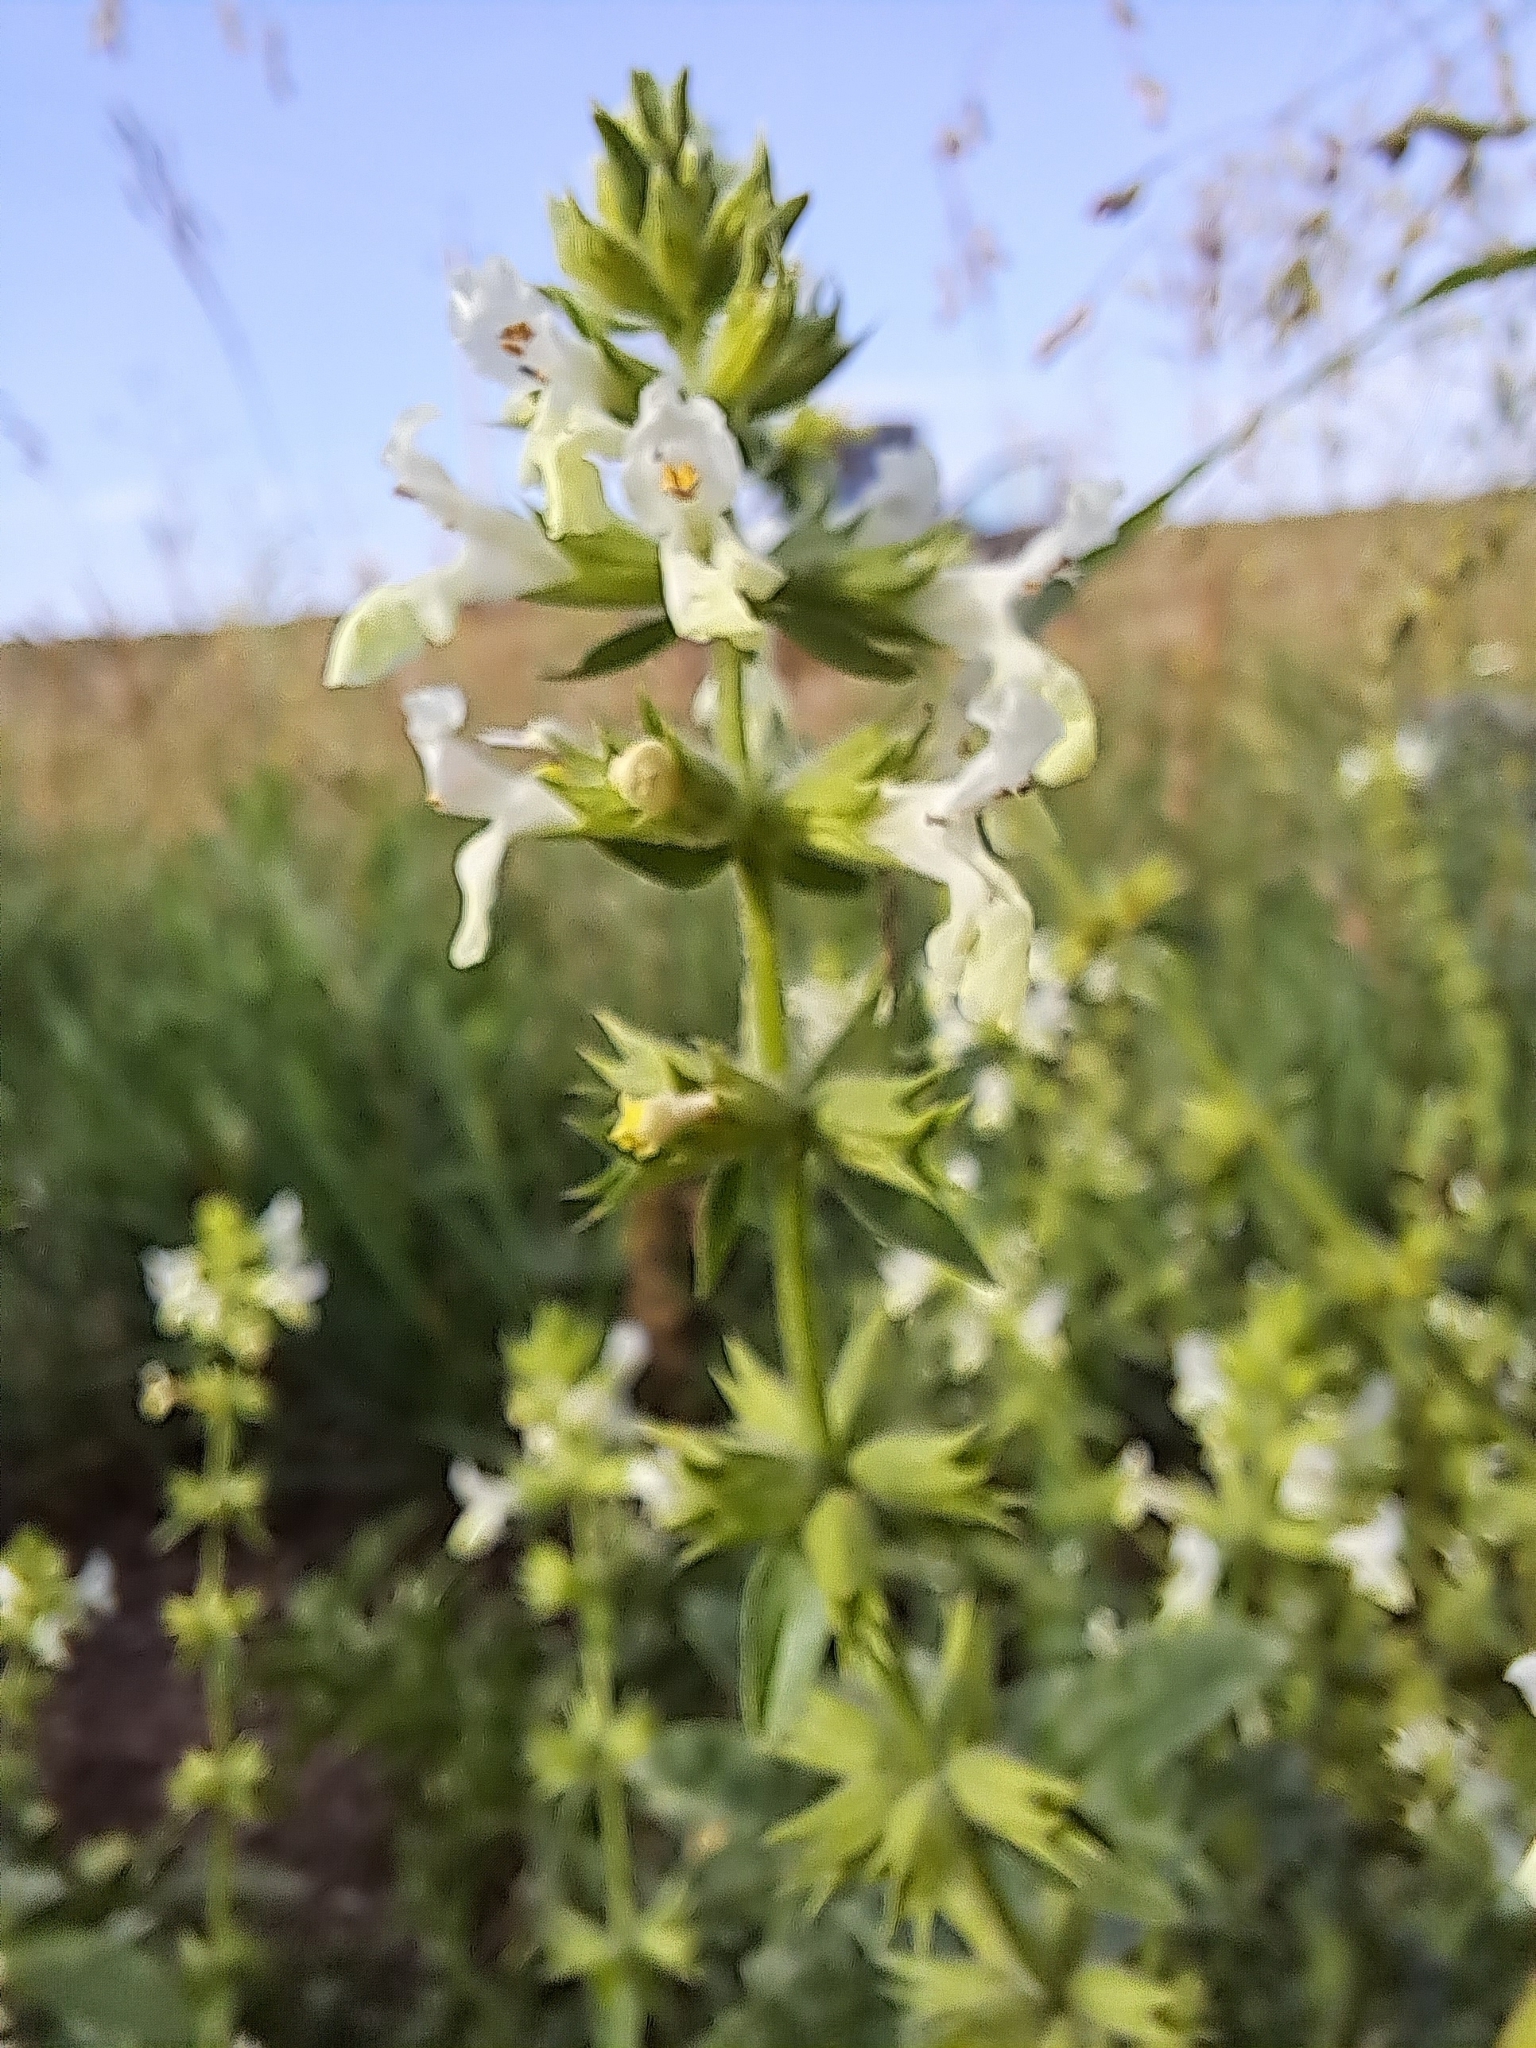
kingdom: Plantae
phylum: Tracheophyta
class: Magnoliopsida
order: Lamiales
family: Lamiaceae
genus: Stachys
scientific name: Stachys annua
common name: Annual yellow-woundwort
